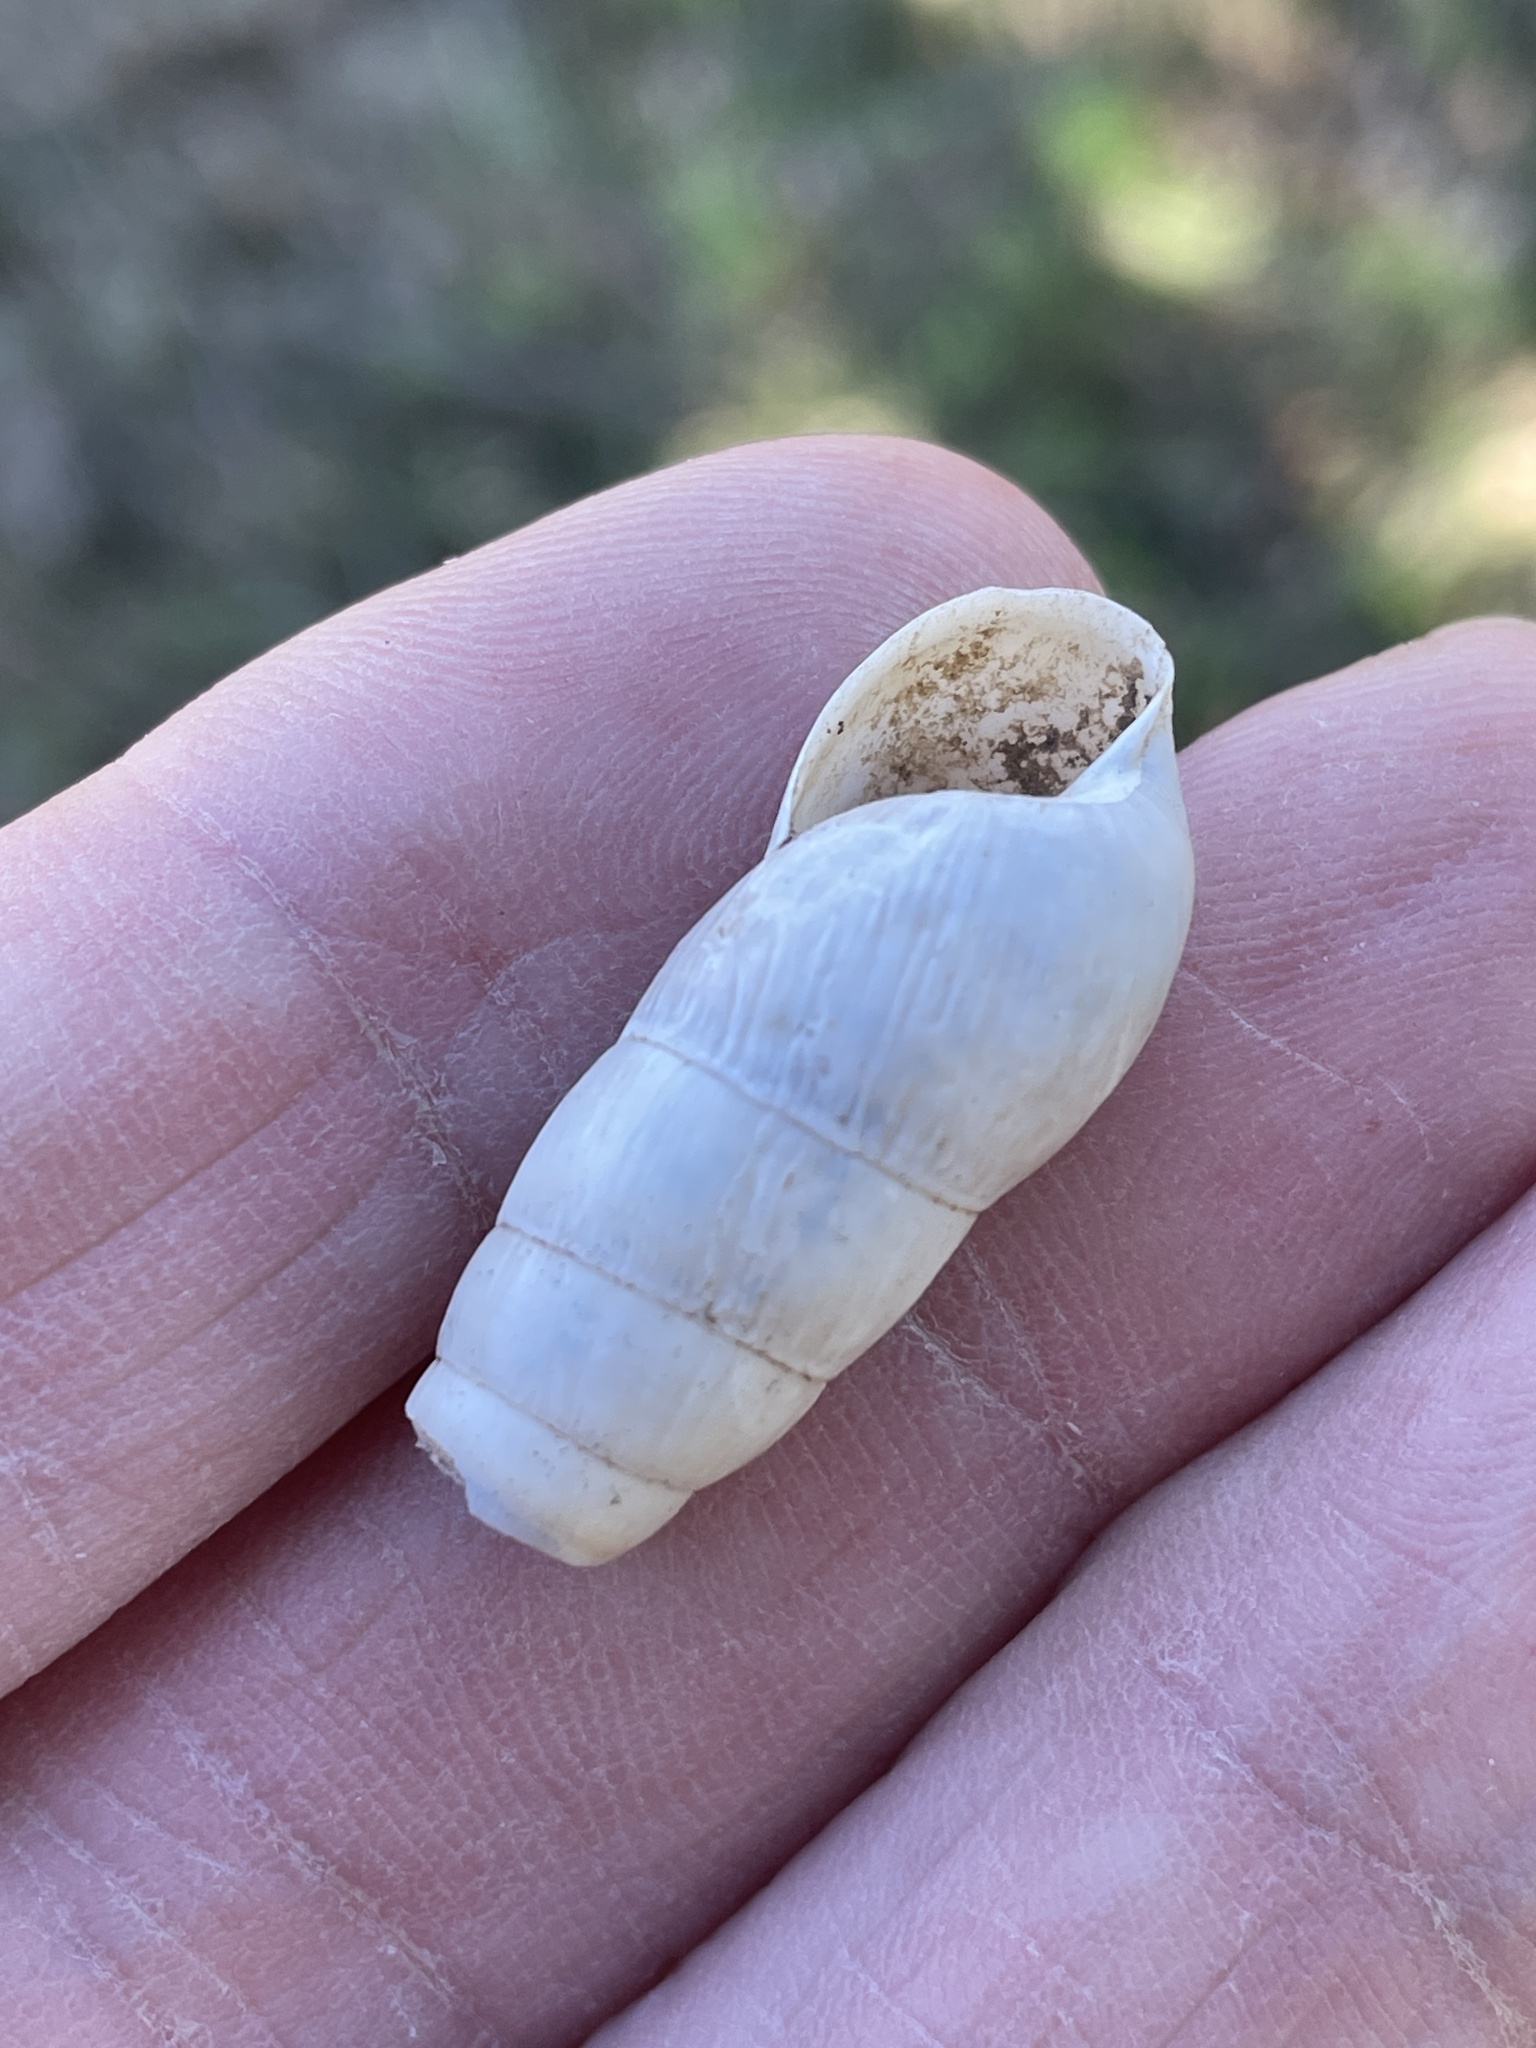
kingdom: Animalia
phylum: Mollusca
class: Gastropoda
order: Stylommatophora
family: Achatinidae
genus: Rumina
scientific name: Rumina decollata
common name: Decollate snail
